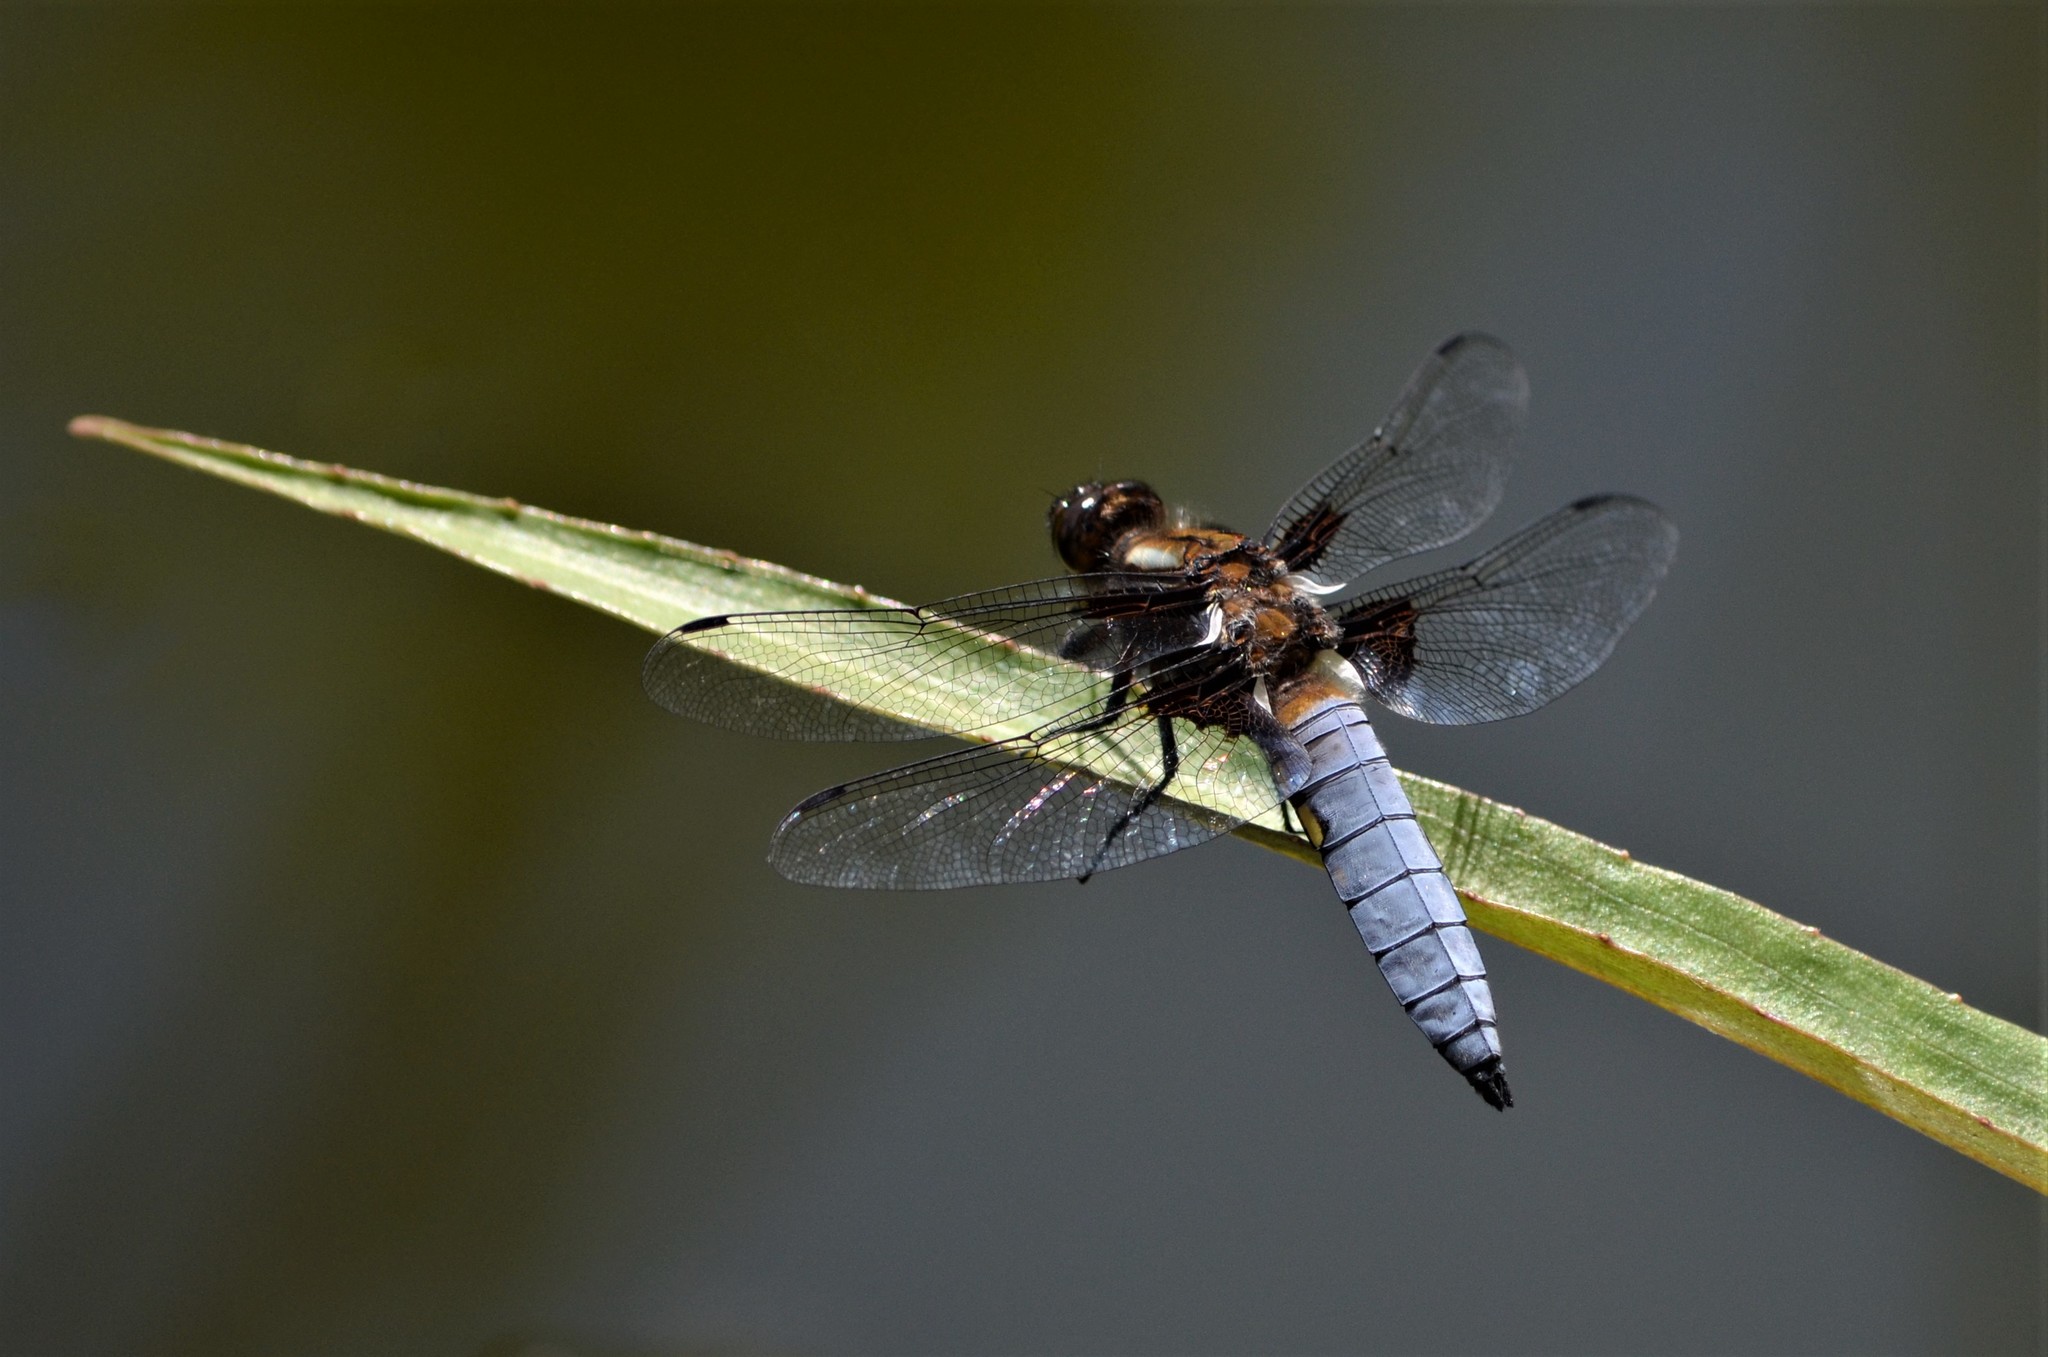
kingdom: Animalia
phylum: Arthropoda
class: Insecta
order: Odonata
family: Libellulidae
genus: Libellula
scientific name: Libellula depressa
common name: Broad-bodied chaser
